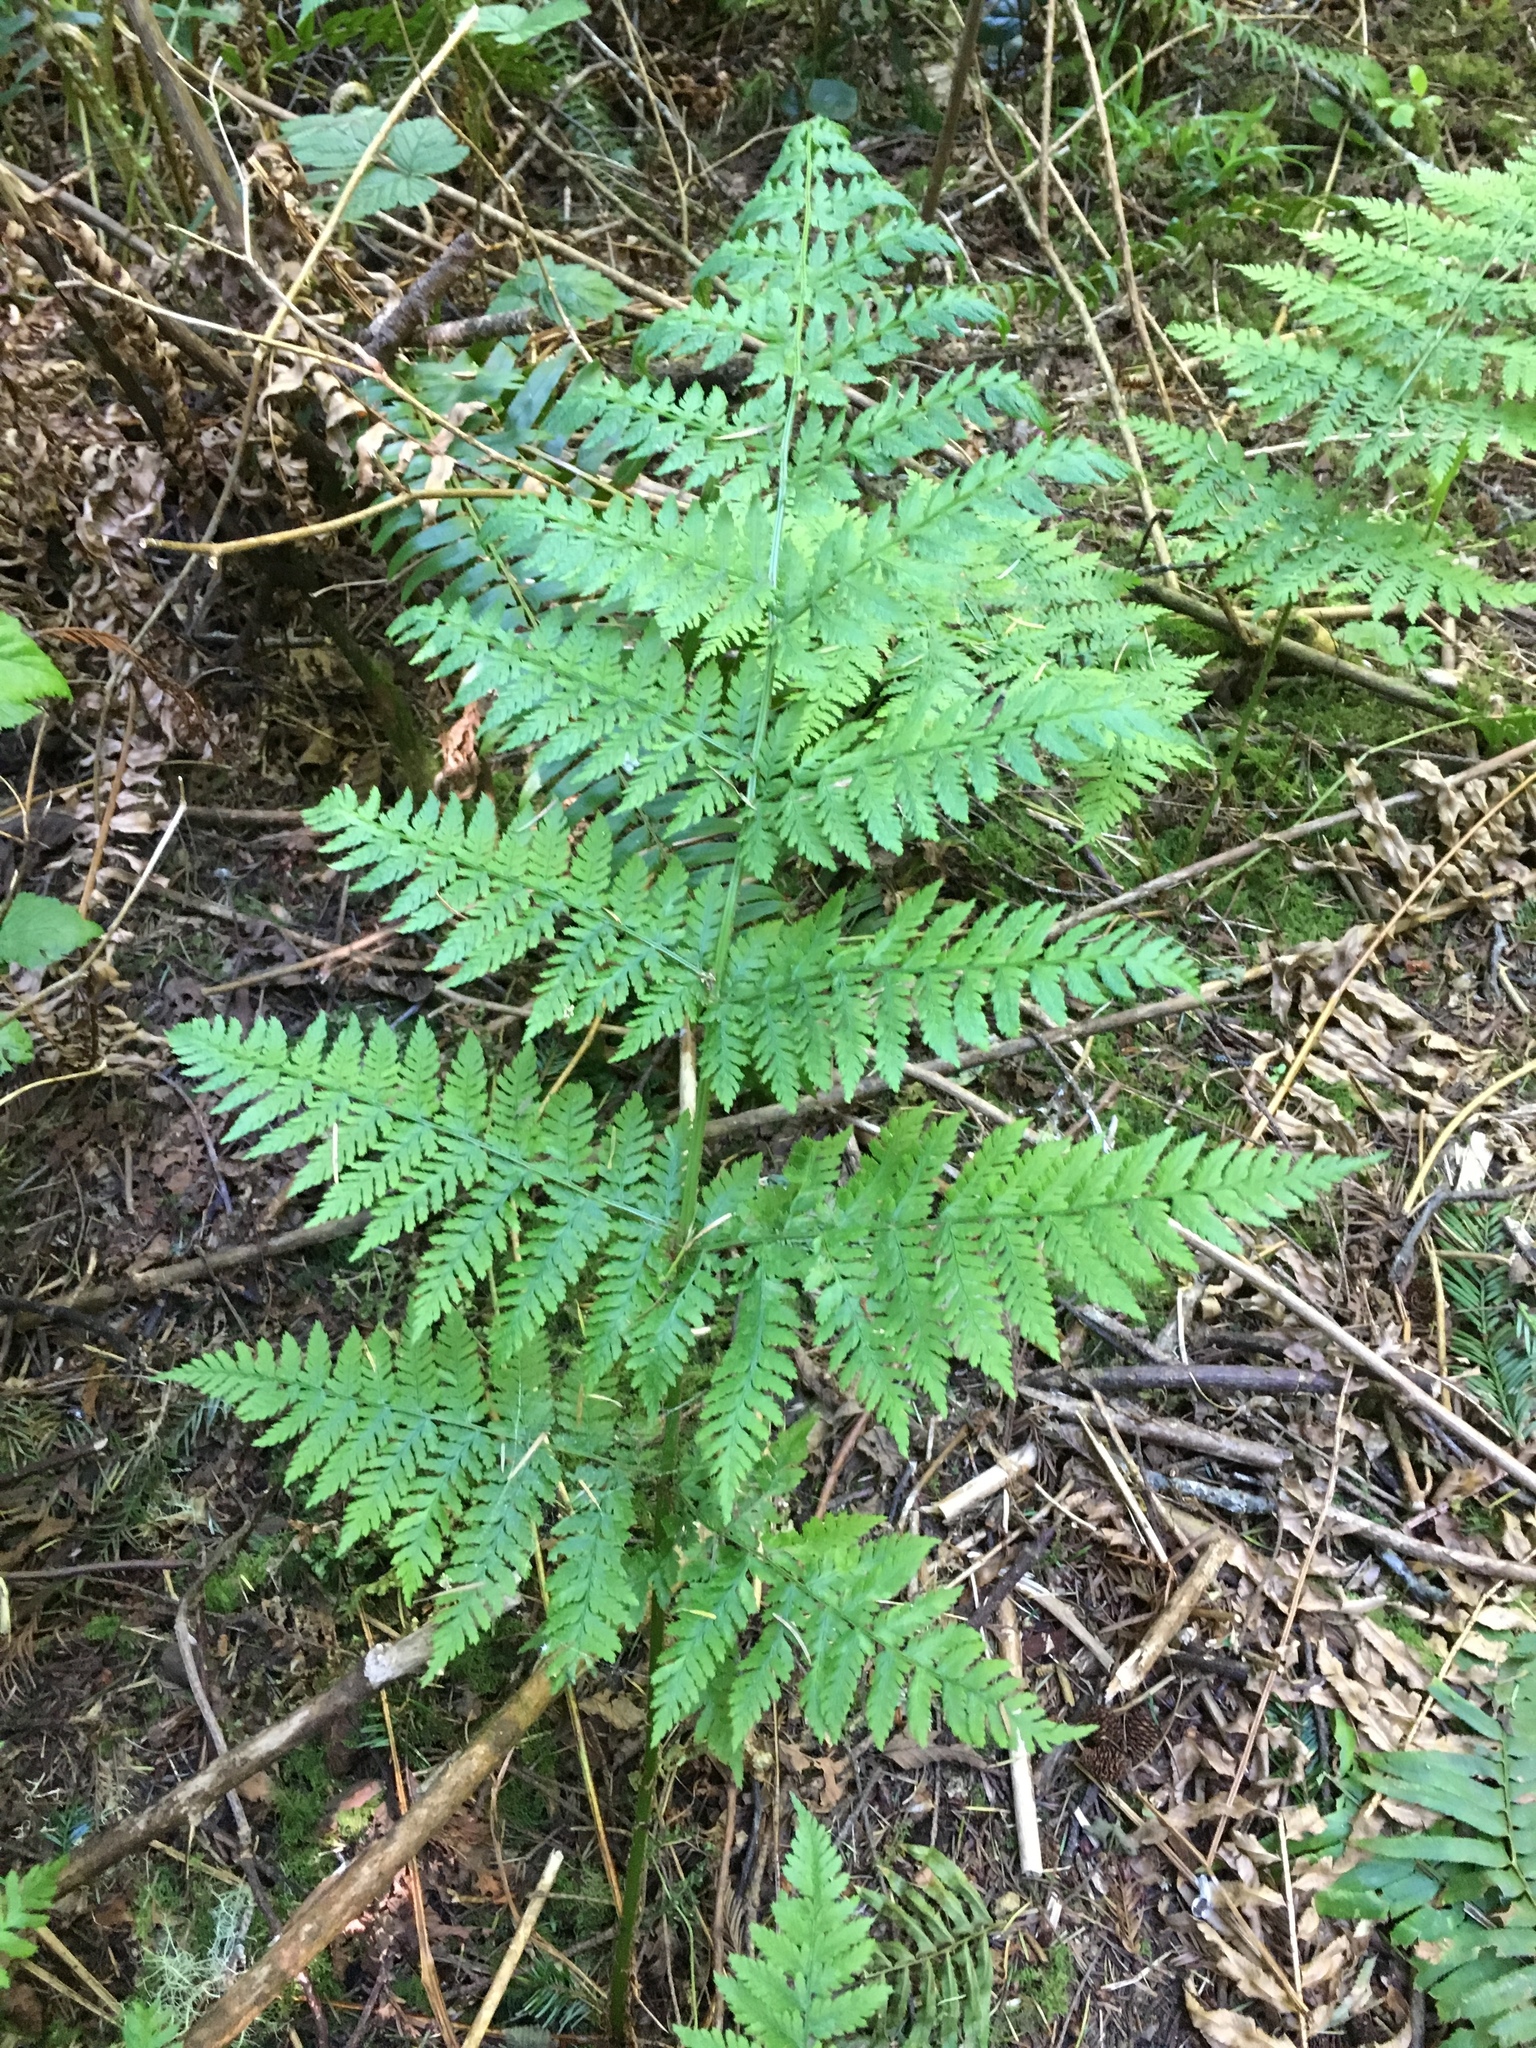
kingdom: Plantae
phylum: Tracheophyta
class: Polypodiopsida
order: Polypodiales
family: Dryopteridaceae
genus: Dryopteris
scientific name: Dryopteris expansa
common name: Northern buckler fern
